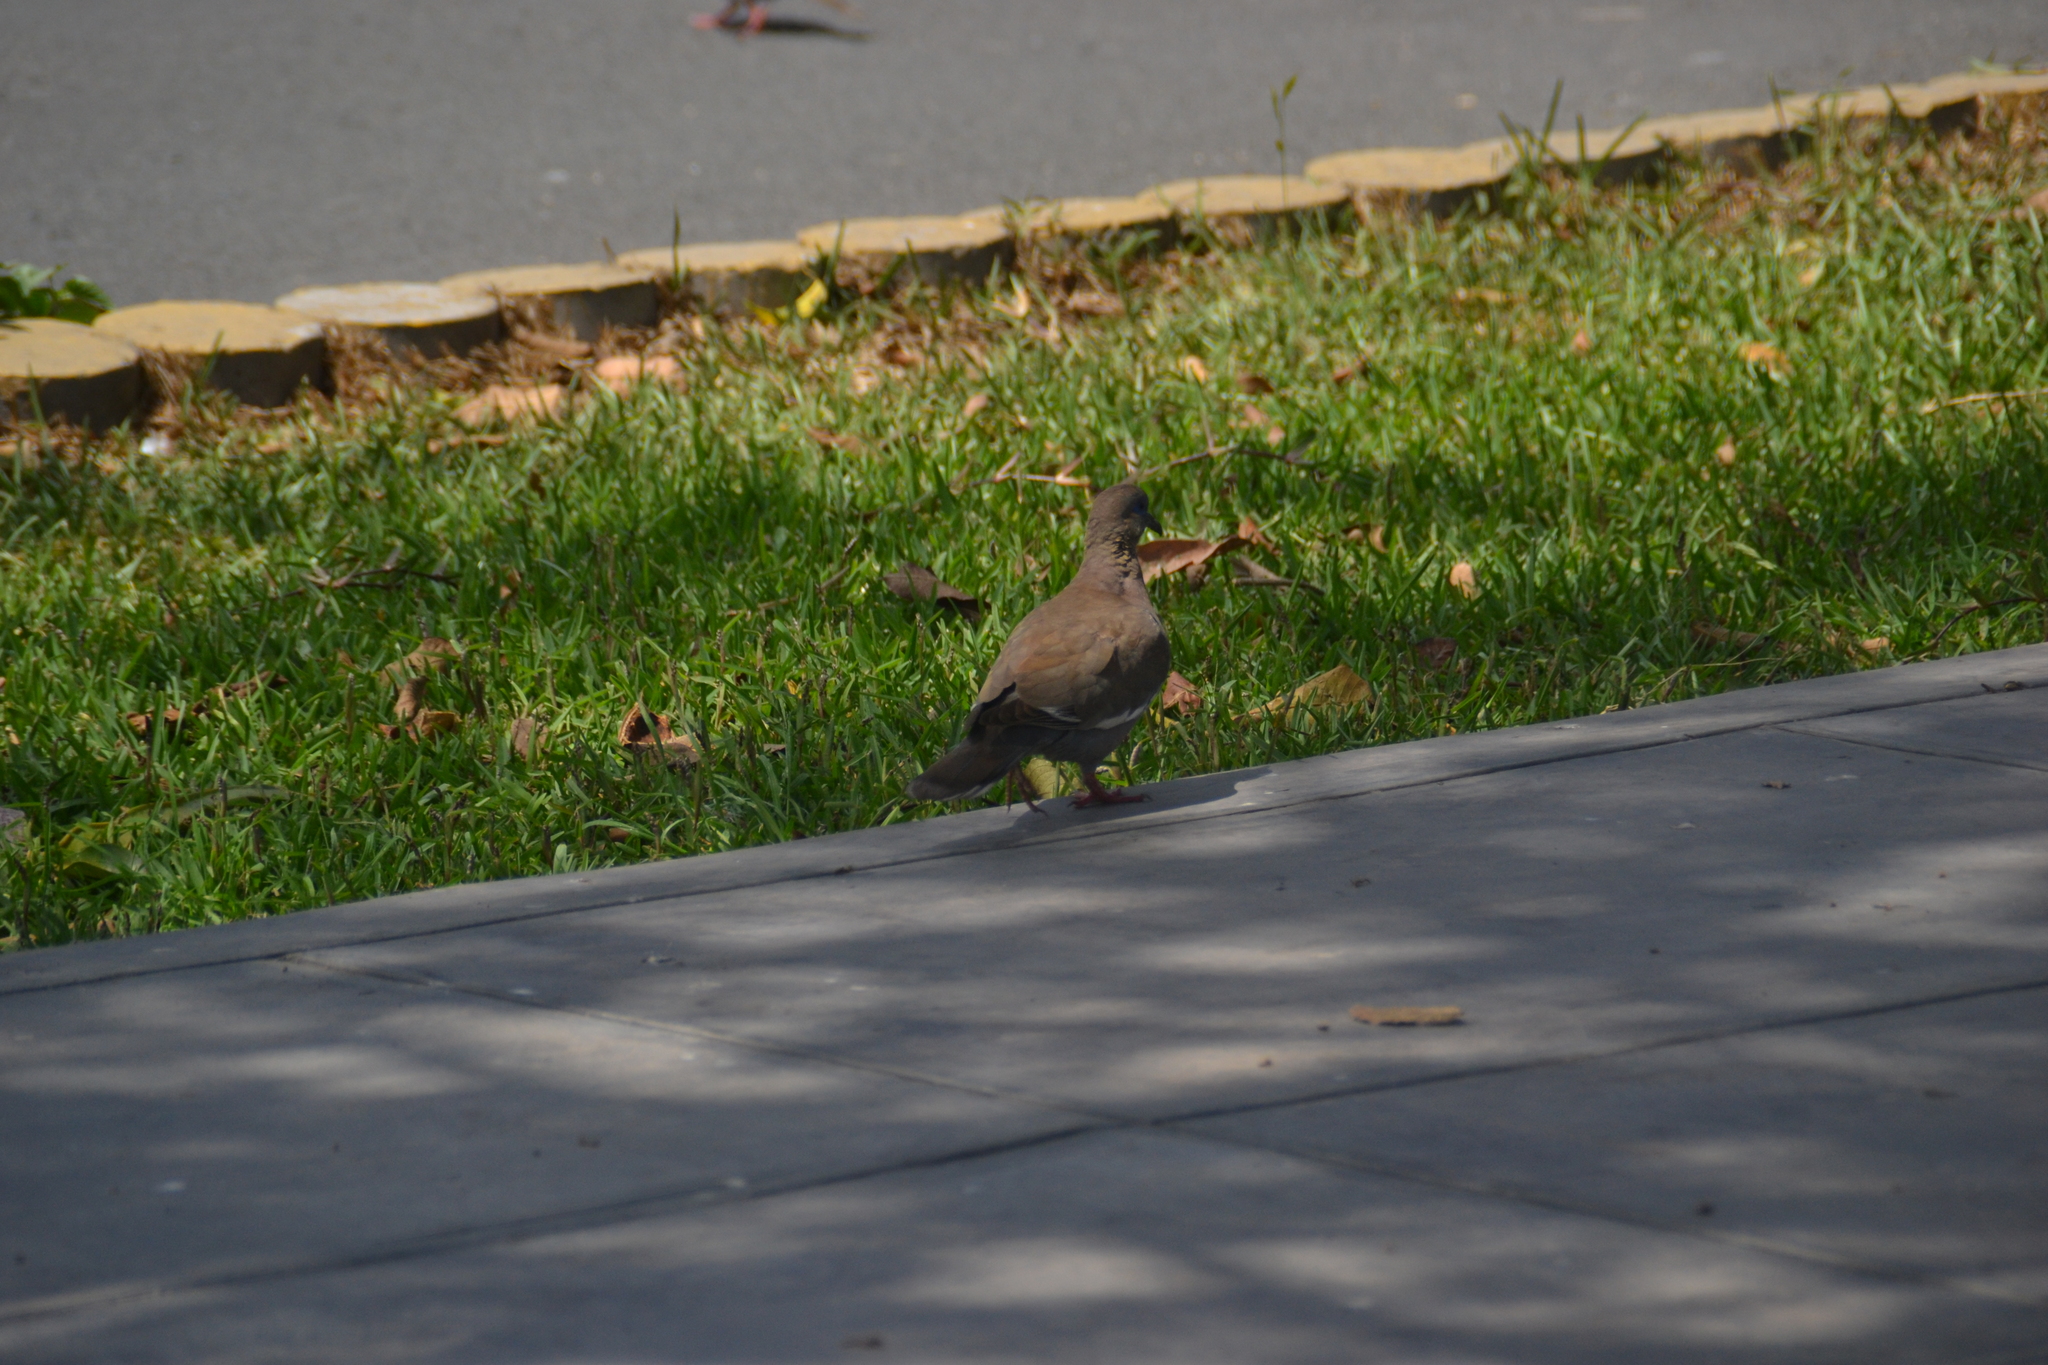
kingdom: Animalia
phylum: Chordata
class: Aves
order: Columbiformes
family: Columbidae
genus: Zenaida
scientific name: Zenaida meloda
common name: West peruvian dove
